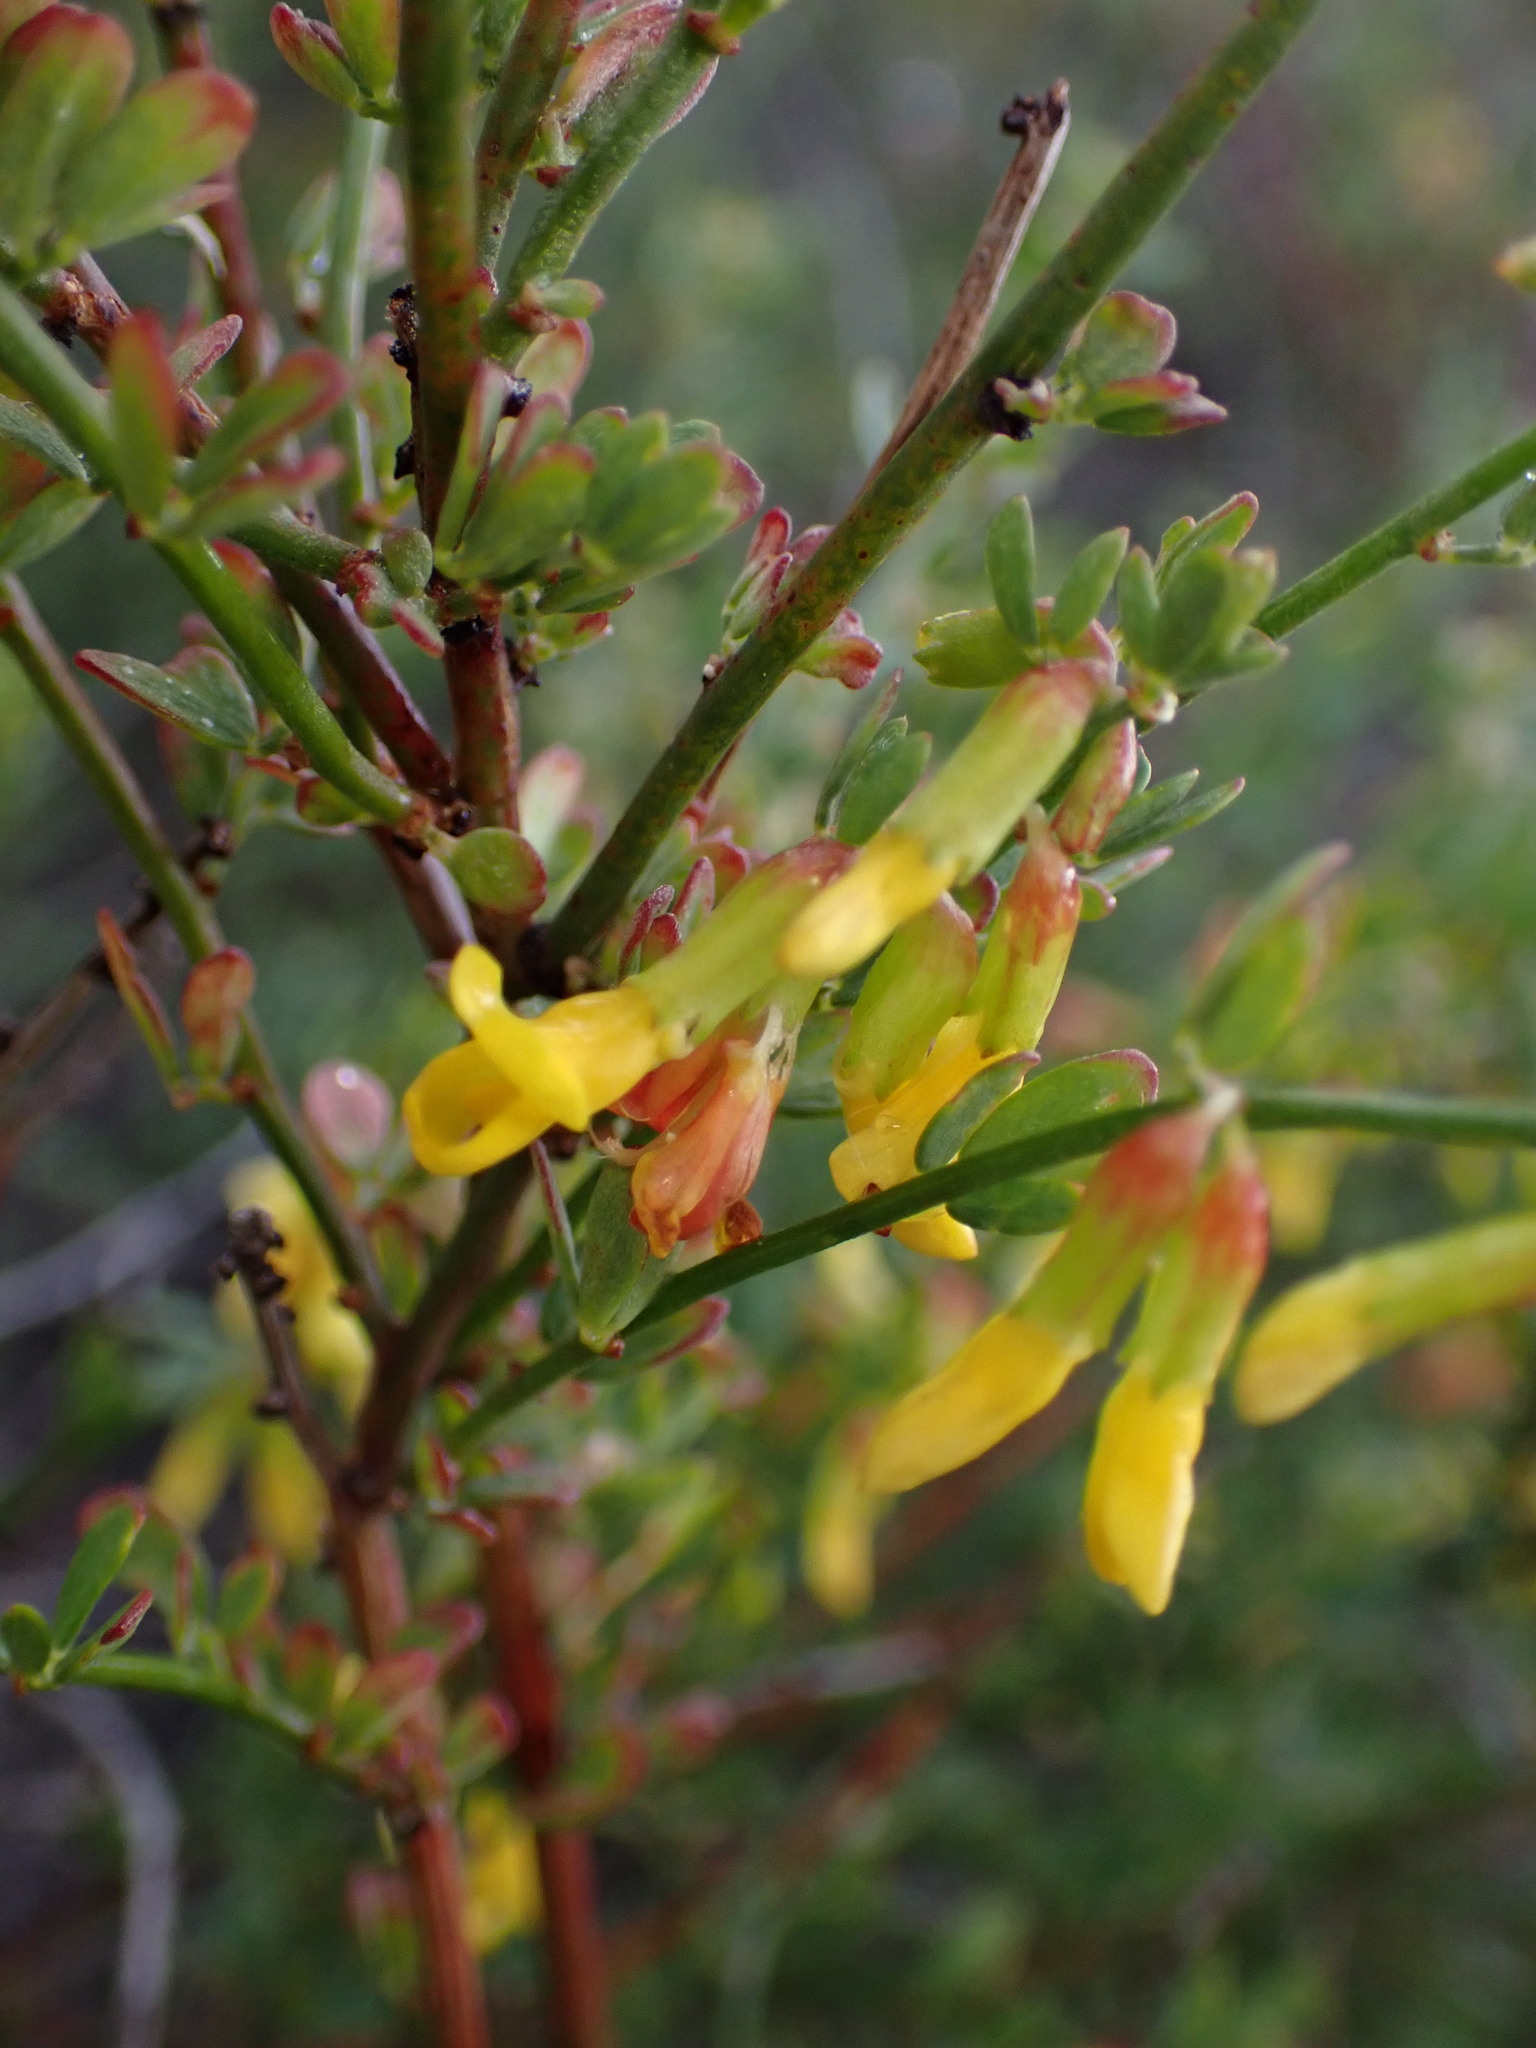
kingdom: Plantae
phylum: Tracheophyta
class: Magnoliopsida
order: Fabales
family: Fabaceae
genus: Acmispon
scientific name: Acmispon glaber
